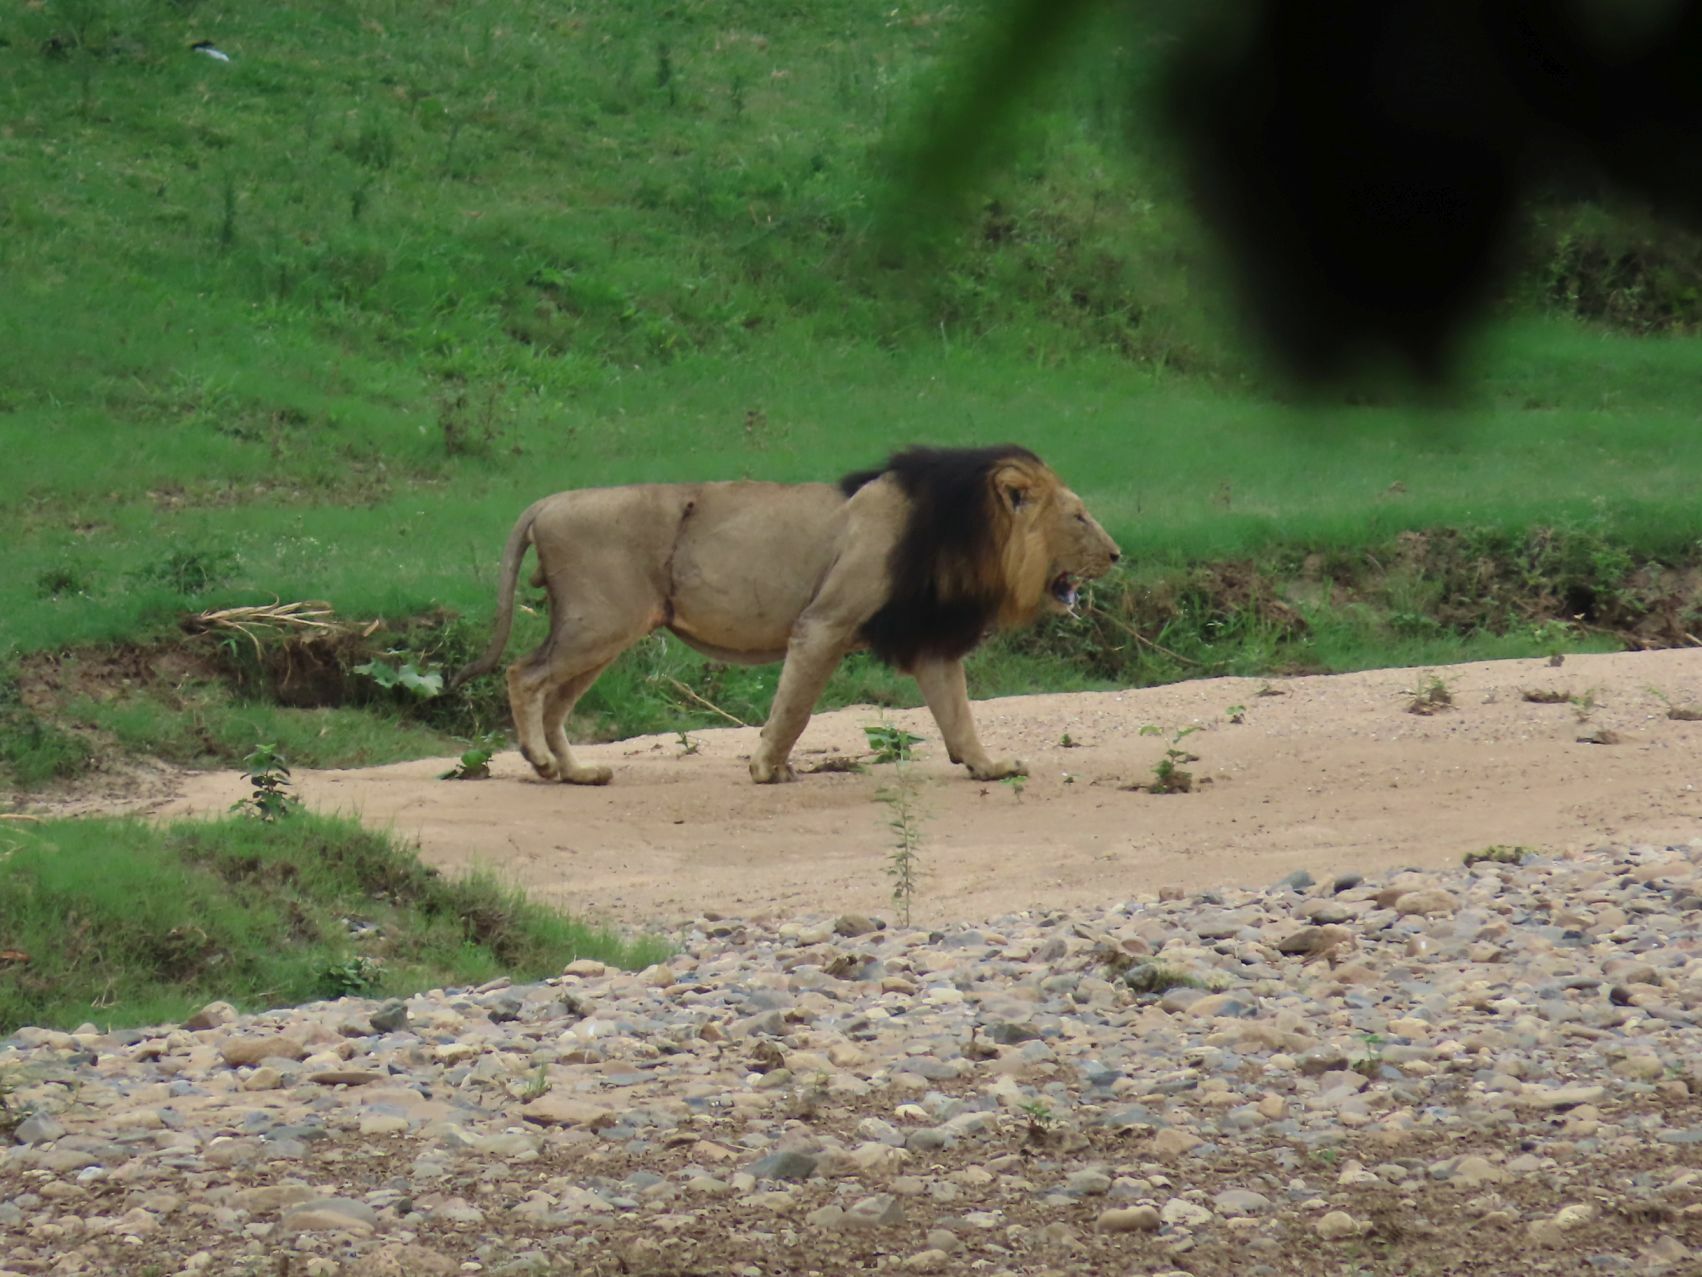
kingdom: Animalia
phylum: Chordata
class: Mammalia
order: Carnivora
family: Felidae
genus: Panthera
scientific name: Panthera leo
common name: Lion
